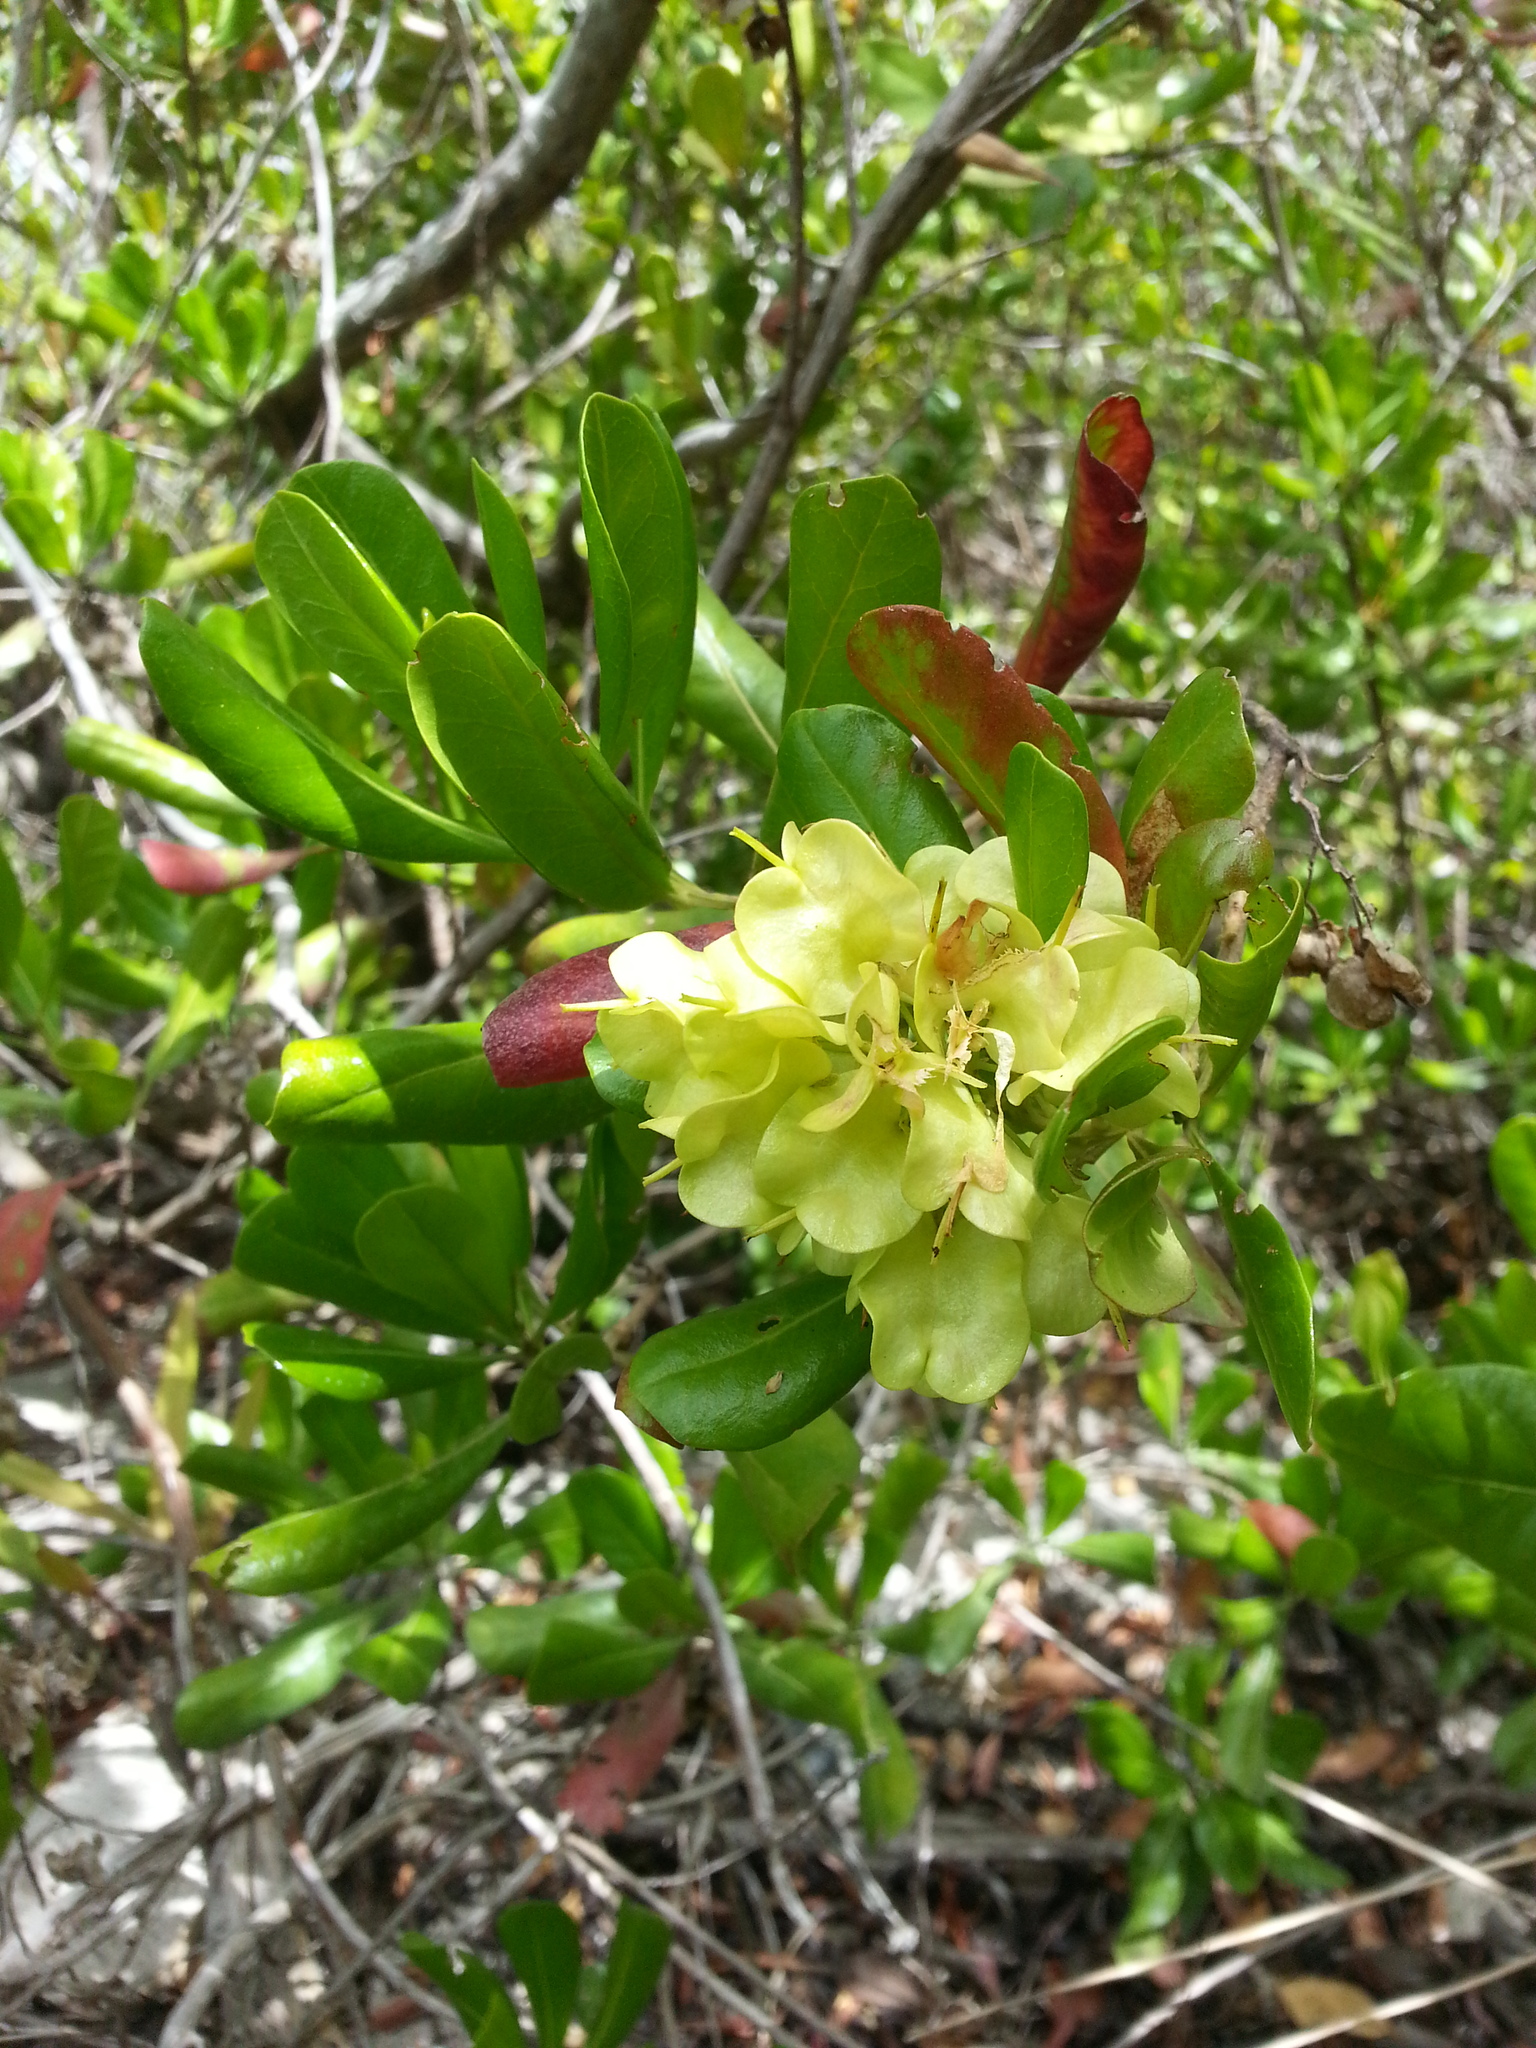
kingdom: Plantae
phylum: Tracheophyta
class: Magnoliopsida
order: Sapindales
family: Sapindaceae
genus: Dodonaea
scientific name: Dodonaea viscosa
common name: Hopbush
